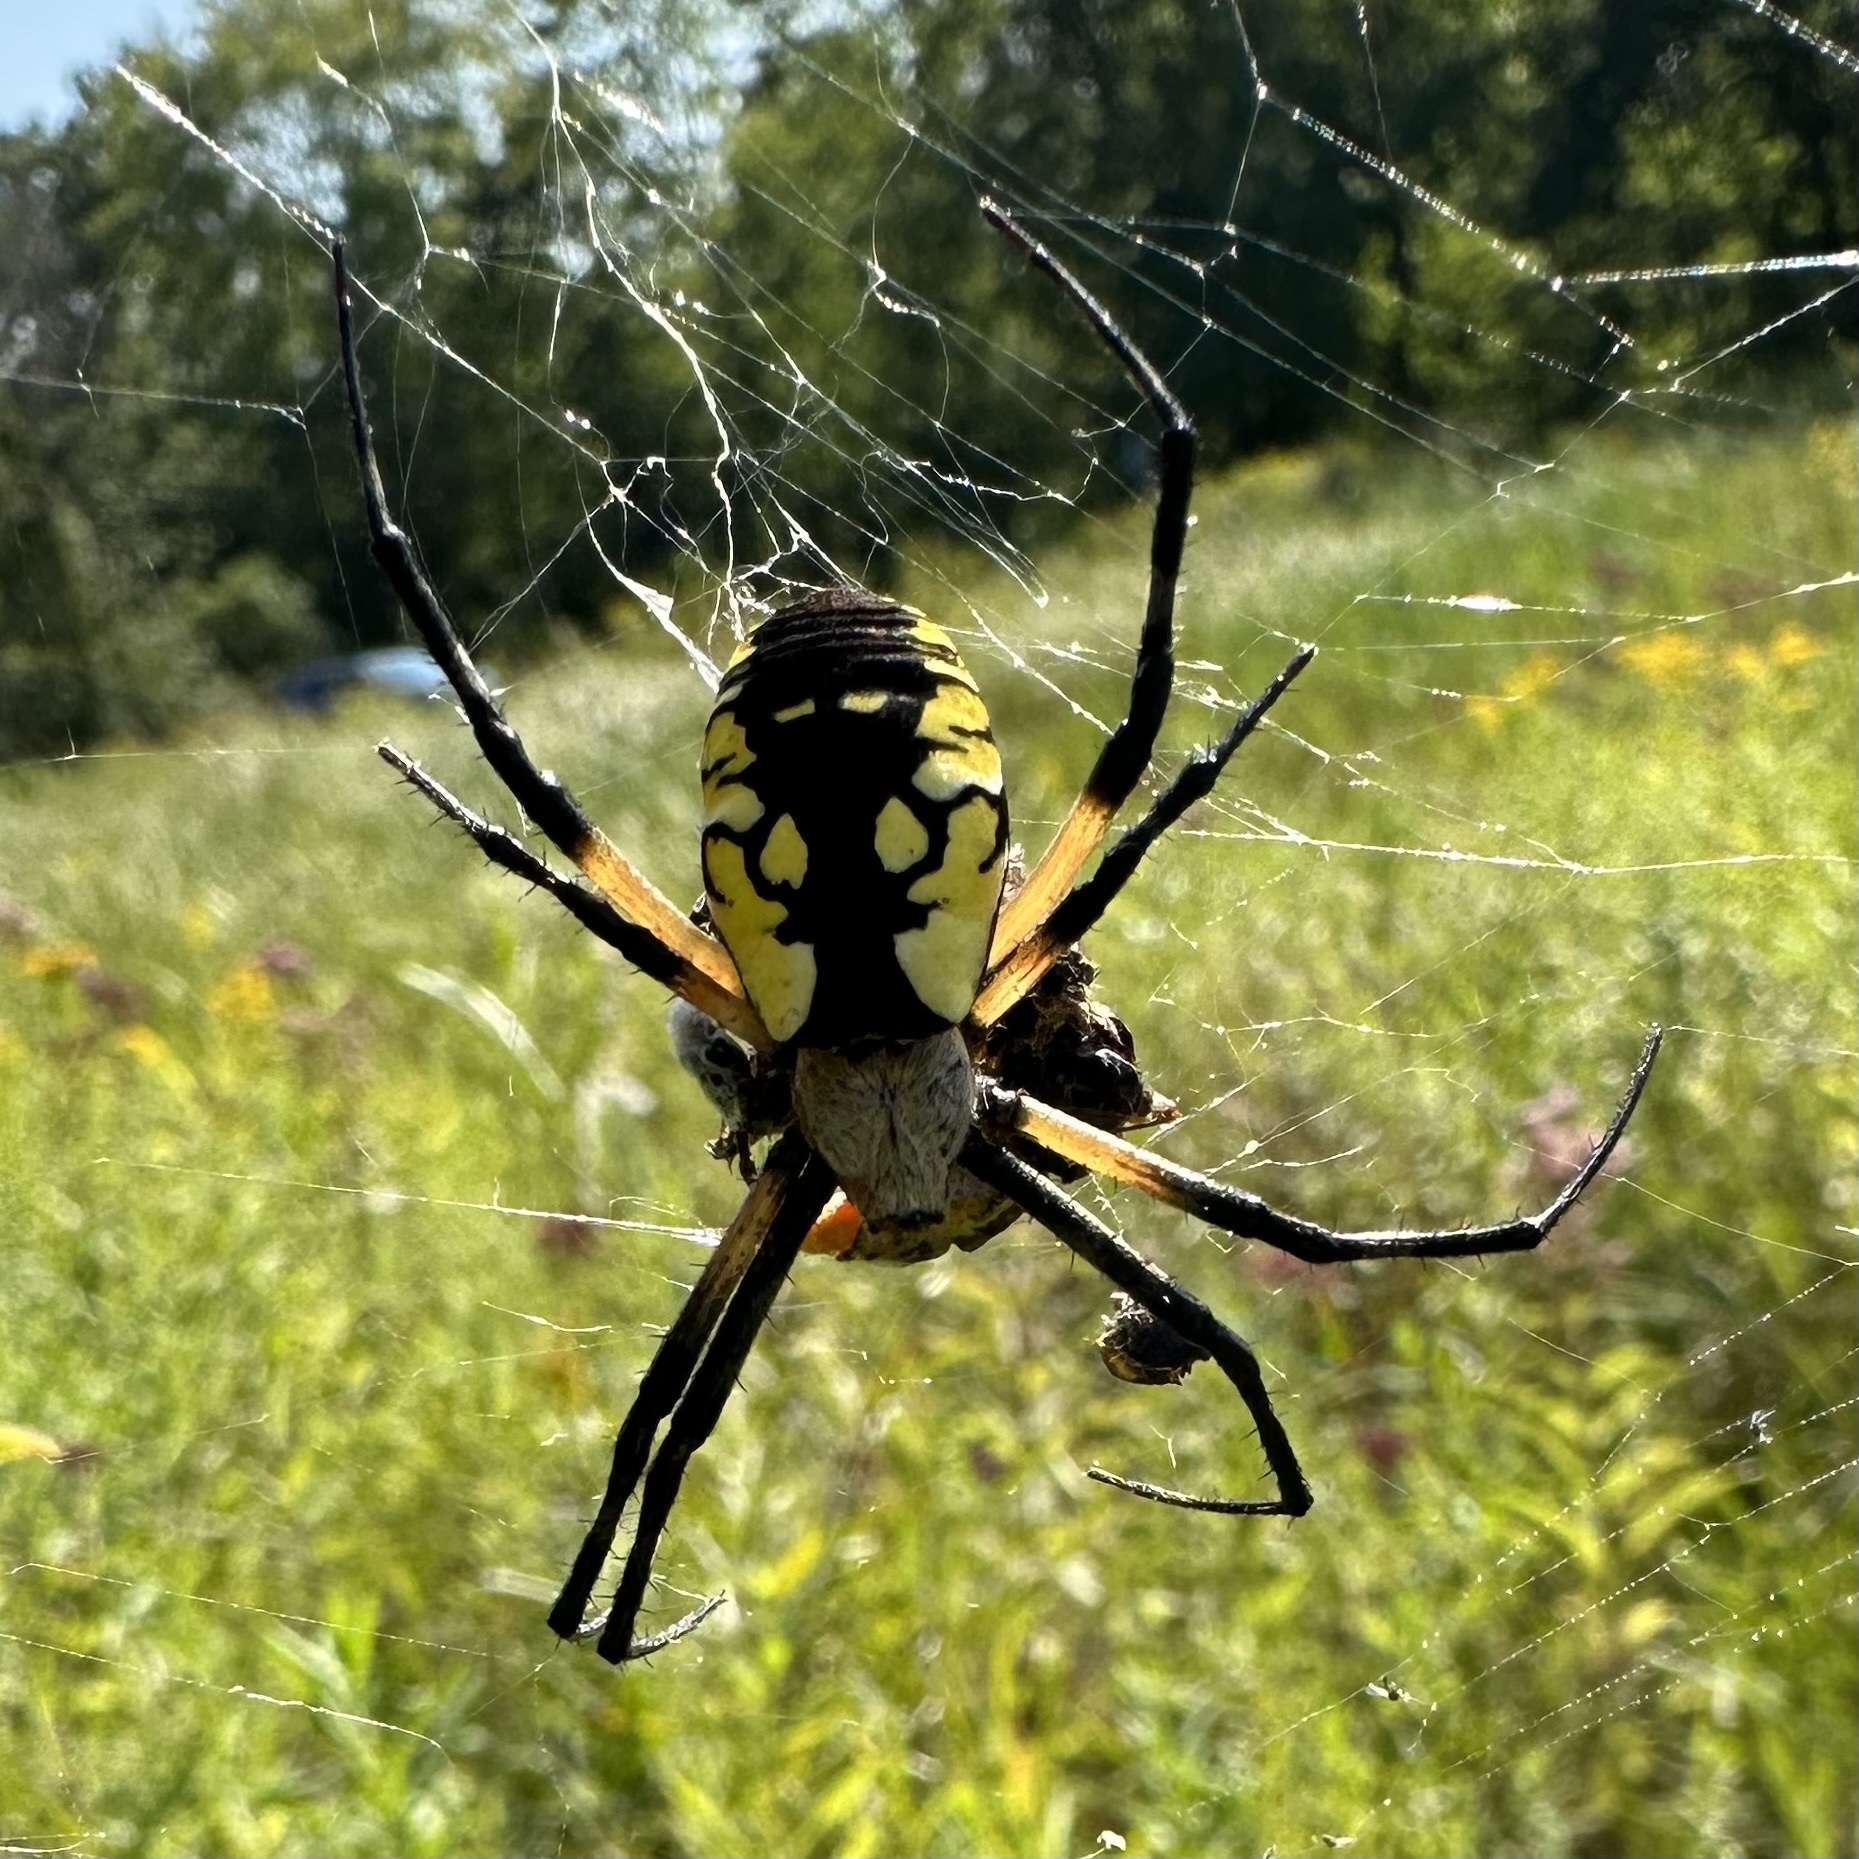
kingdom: Animalia
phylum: Arthropoda
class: Arachnida
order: Araneae
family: Araneidae
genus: Argiope
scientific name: Argiope aurantia
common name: Orb weavers
